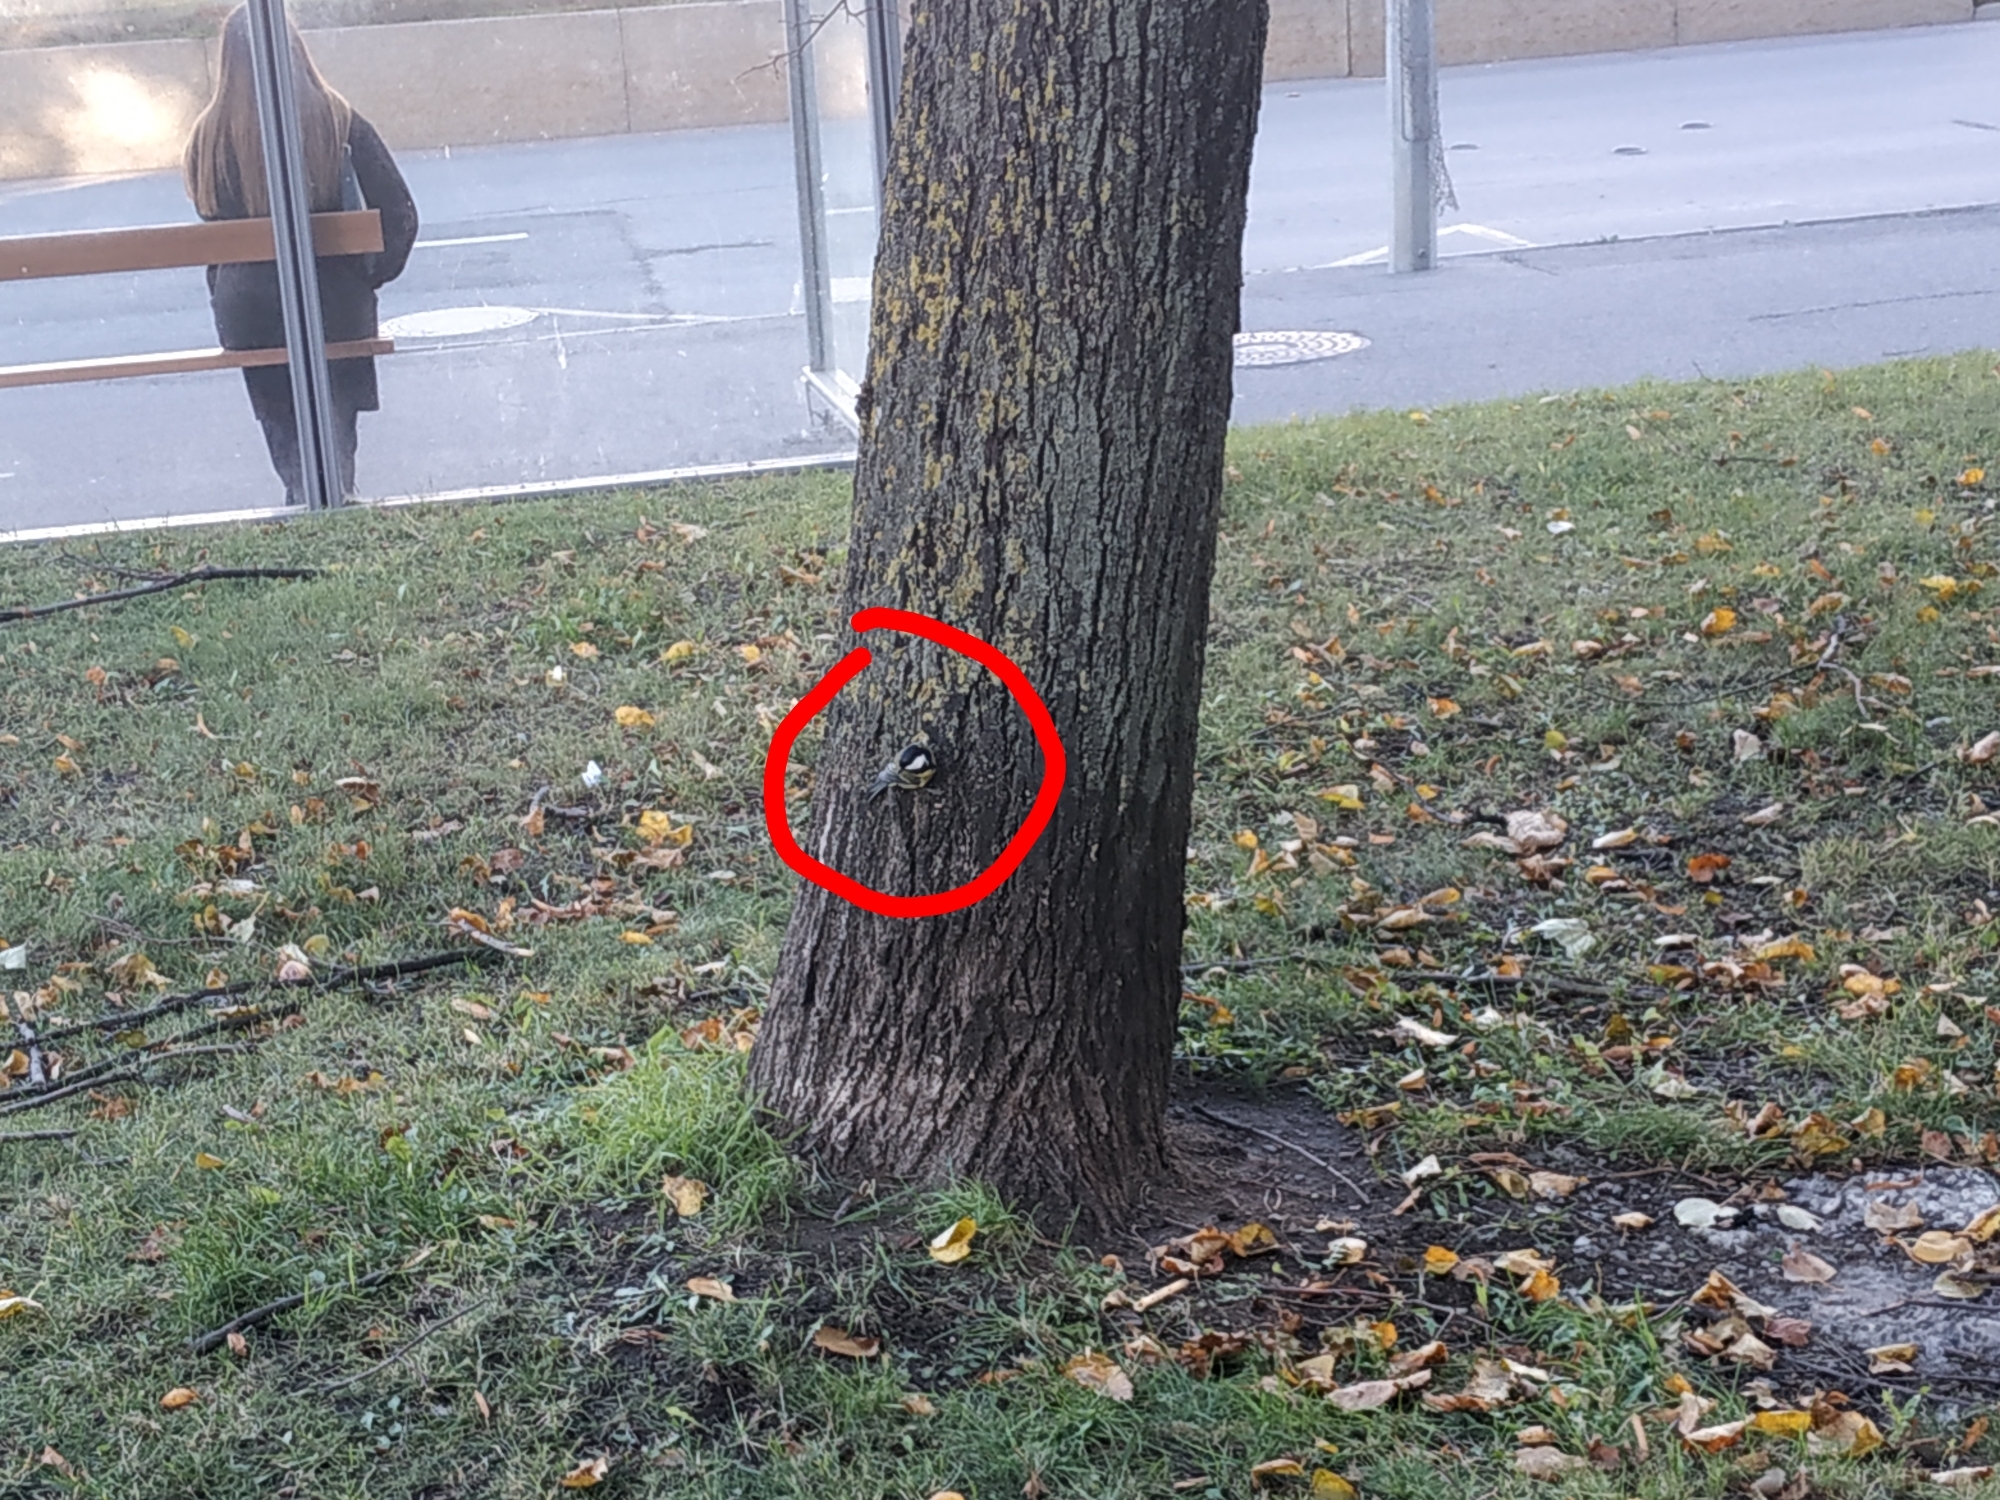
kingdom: Animalia
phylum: Chordata
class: Aves
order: Passeriformes
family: Paridae
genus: Parus
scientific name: Parus major
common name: Great tit
